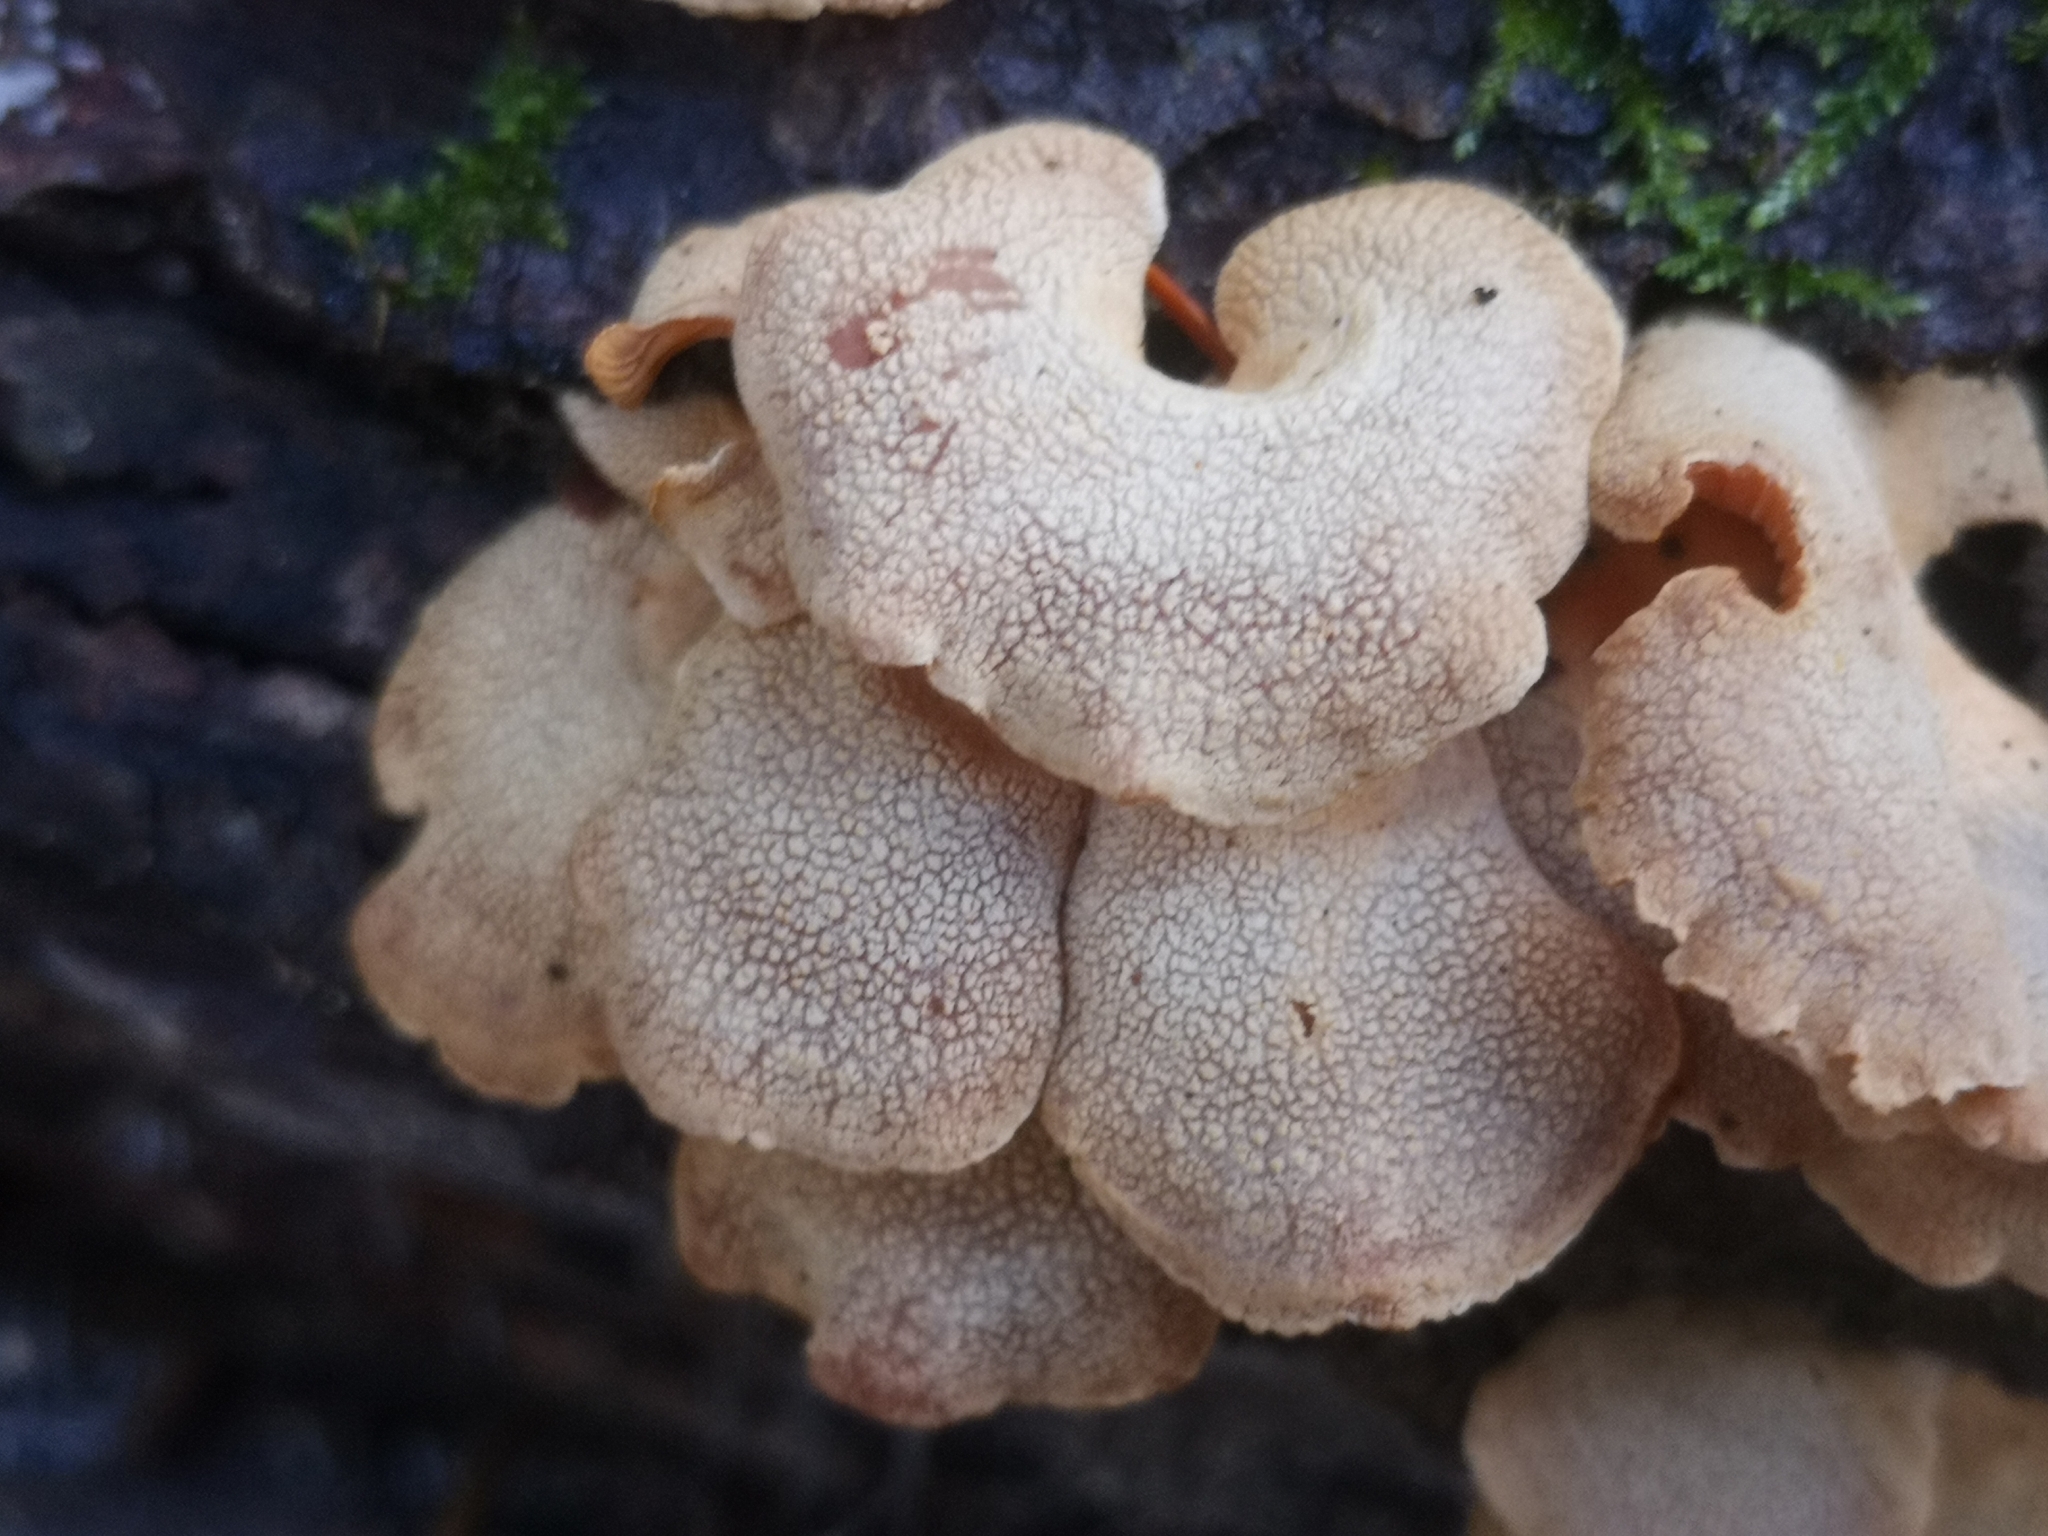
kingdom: Fungi
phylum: Basidiomycota
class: Agaricomycetes
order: Agaricales
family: Mycenaceae
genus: Panellus
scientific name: Panellus stipticus
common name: Bitter oysterling
